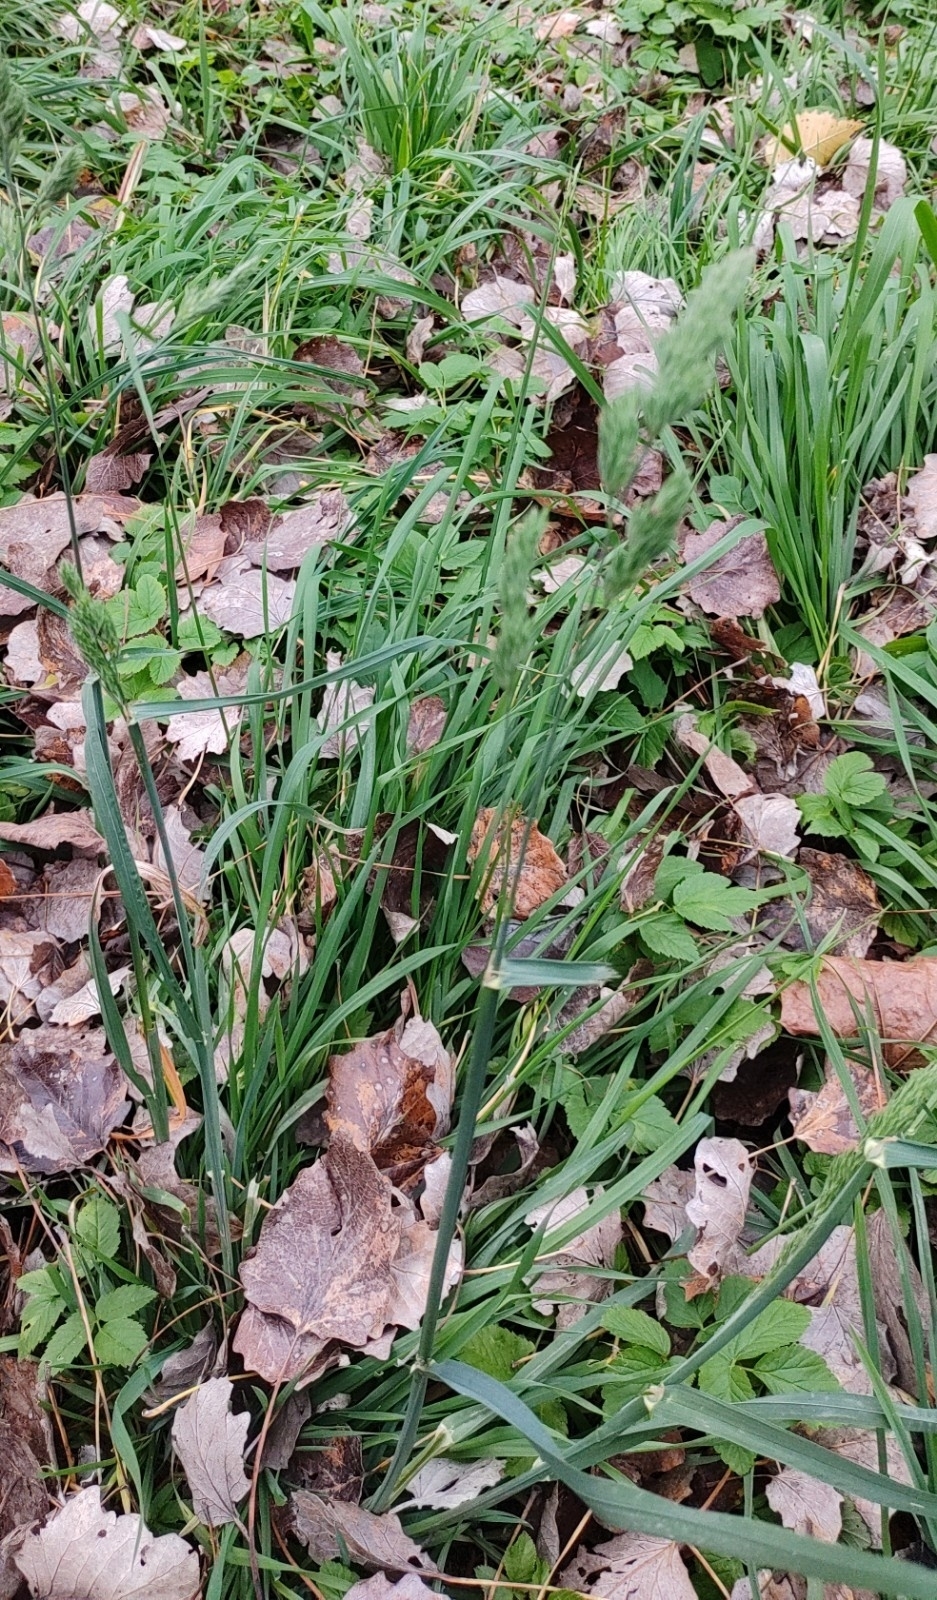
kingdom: Plantae
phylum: Tracheophyta
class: Liliopsida
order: Poales
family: Poaceae
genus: Dactylis
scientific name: Dactylis glomerata
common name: Orchardgrass
